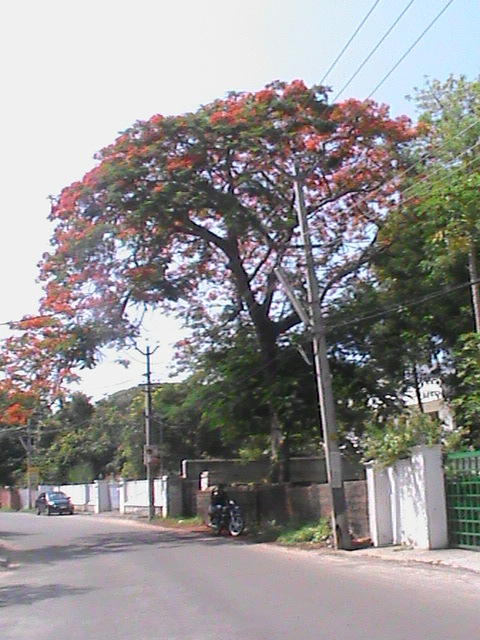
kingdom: Plantae
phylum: Tracheophyta
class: Magnoliopsida
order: Fabales
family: Fabaceae
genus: Delonix
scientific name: Delonix regia
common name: Royal poinciana
